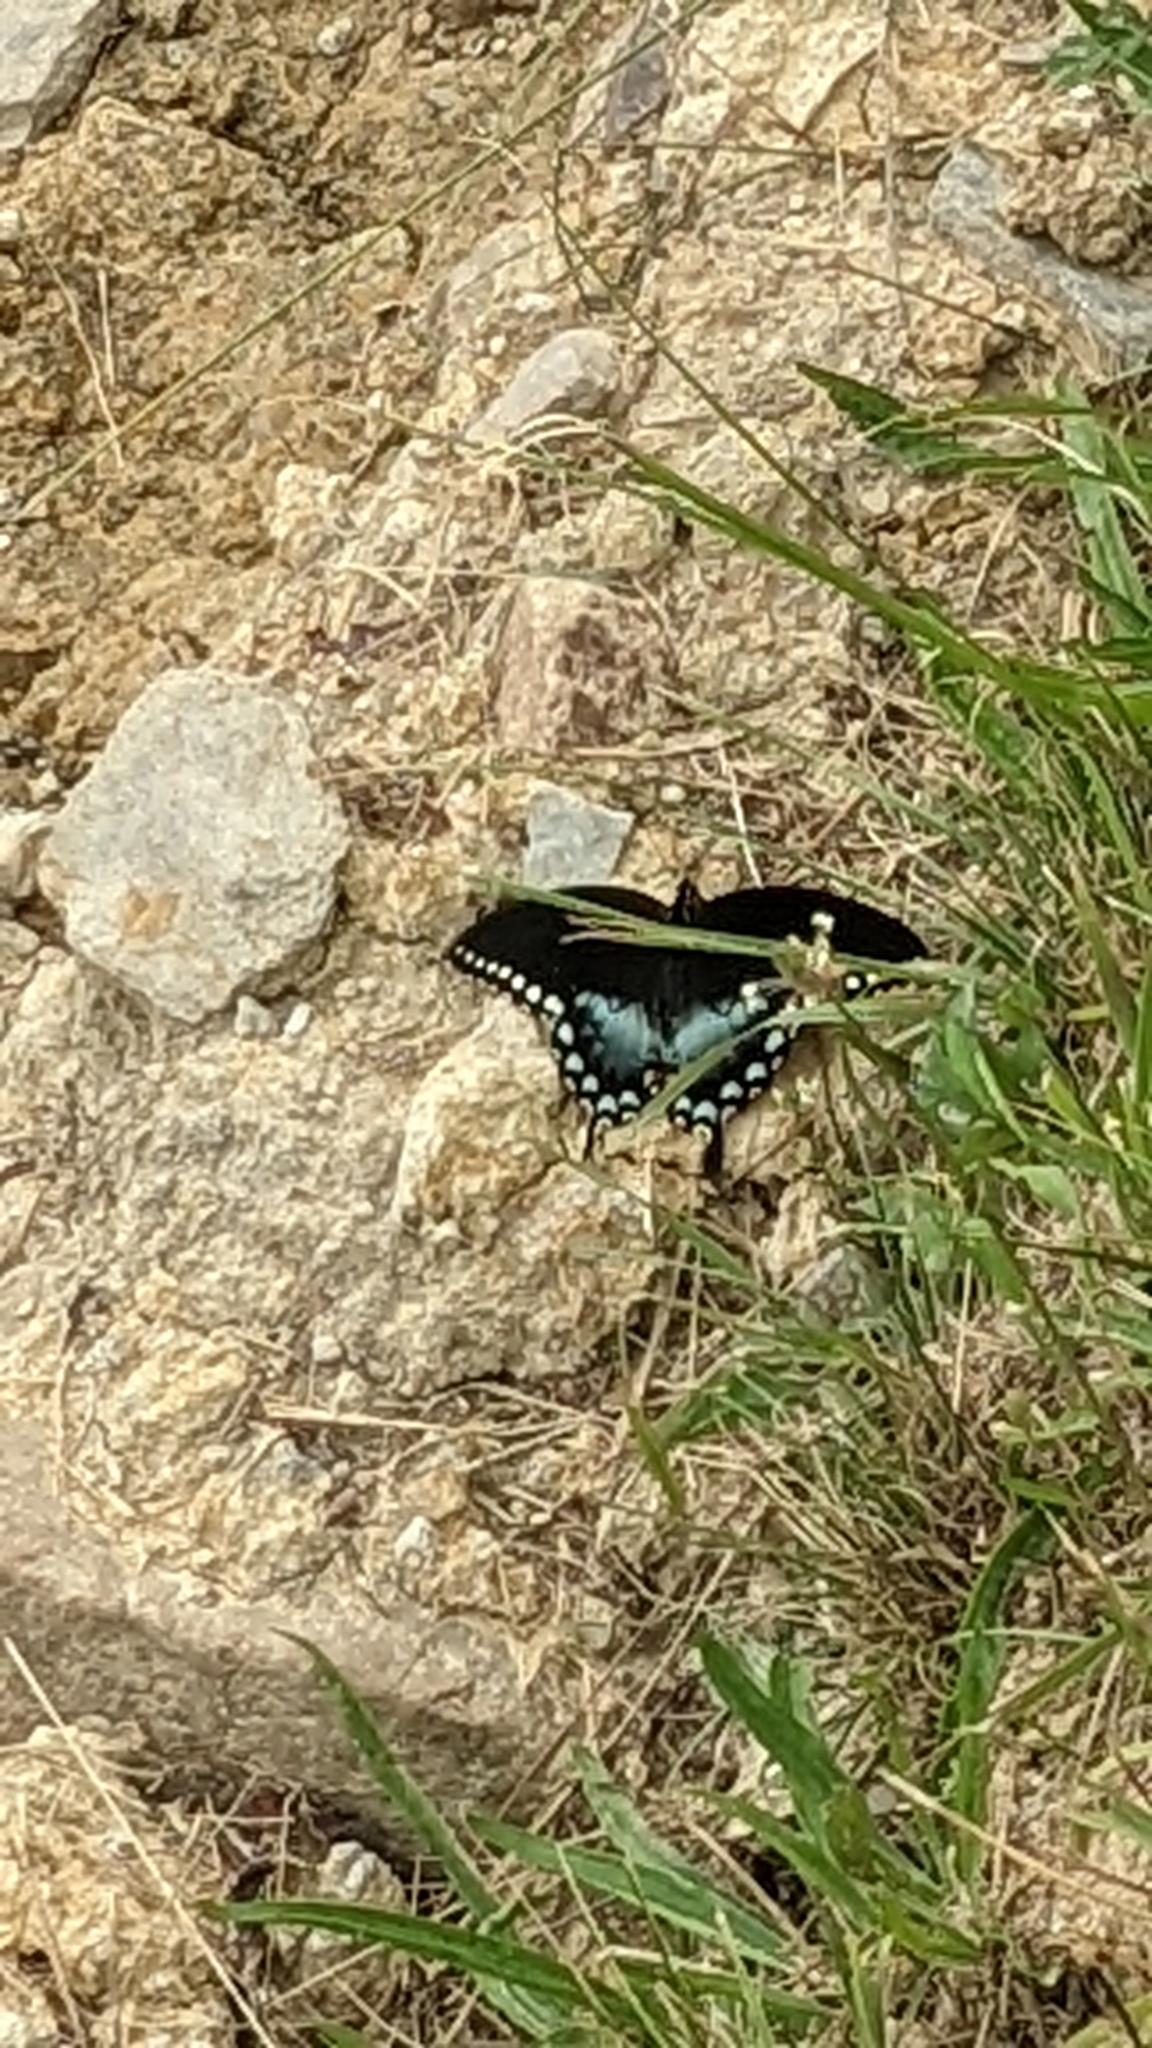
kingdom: Animalia
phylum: Arthropoda
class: Insecta
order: Lepidoptera
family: Papilionidae
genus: Papilio
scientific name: Papilio troilus
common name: Spicebush swallowtail
